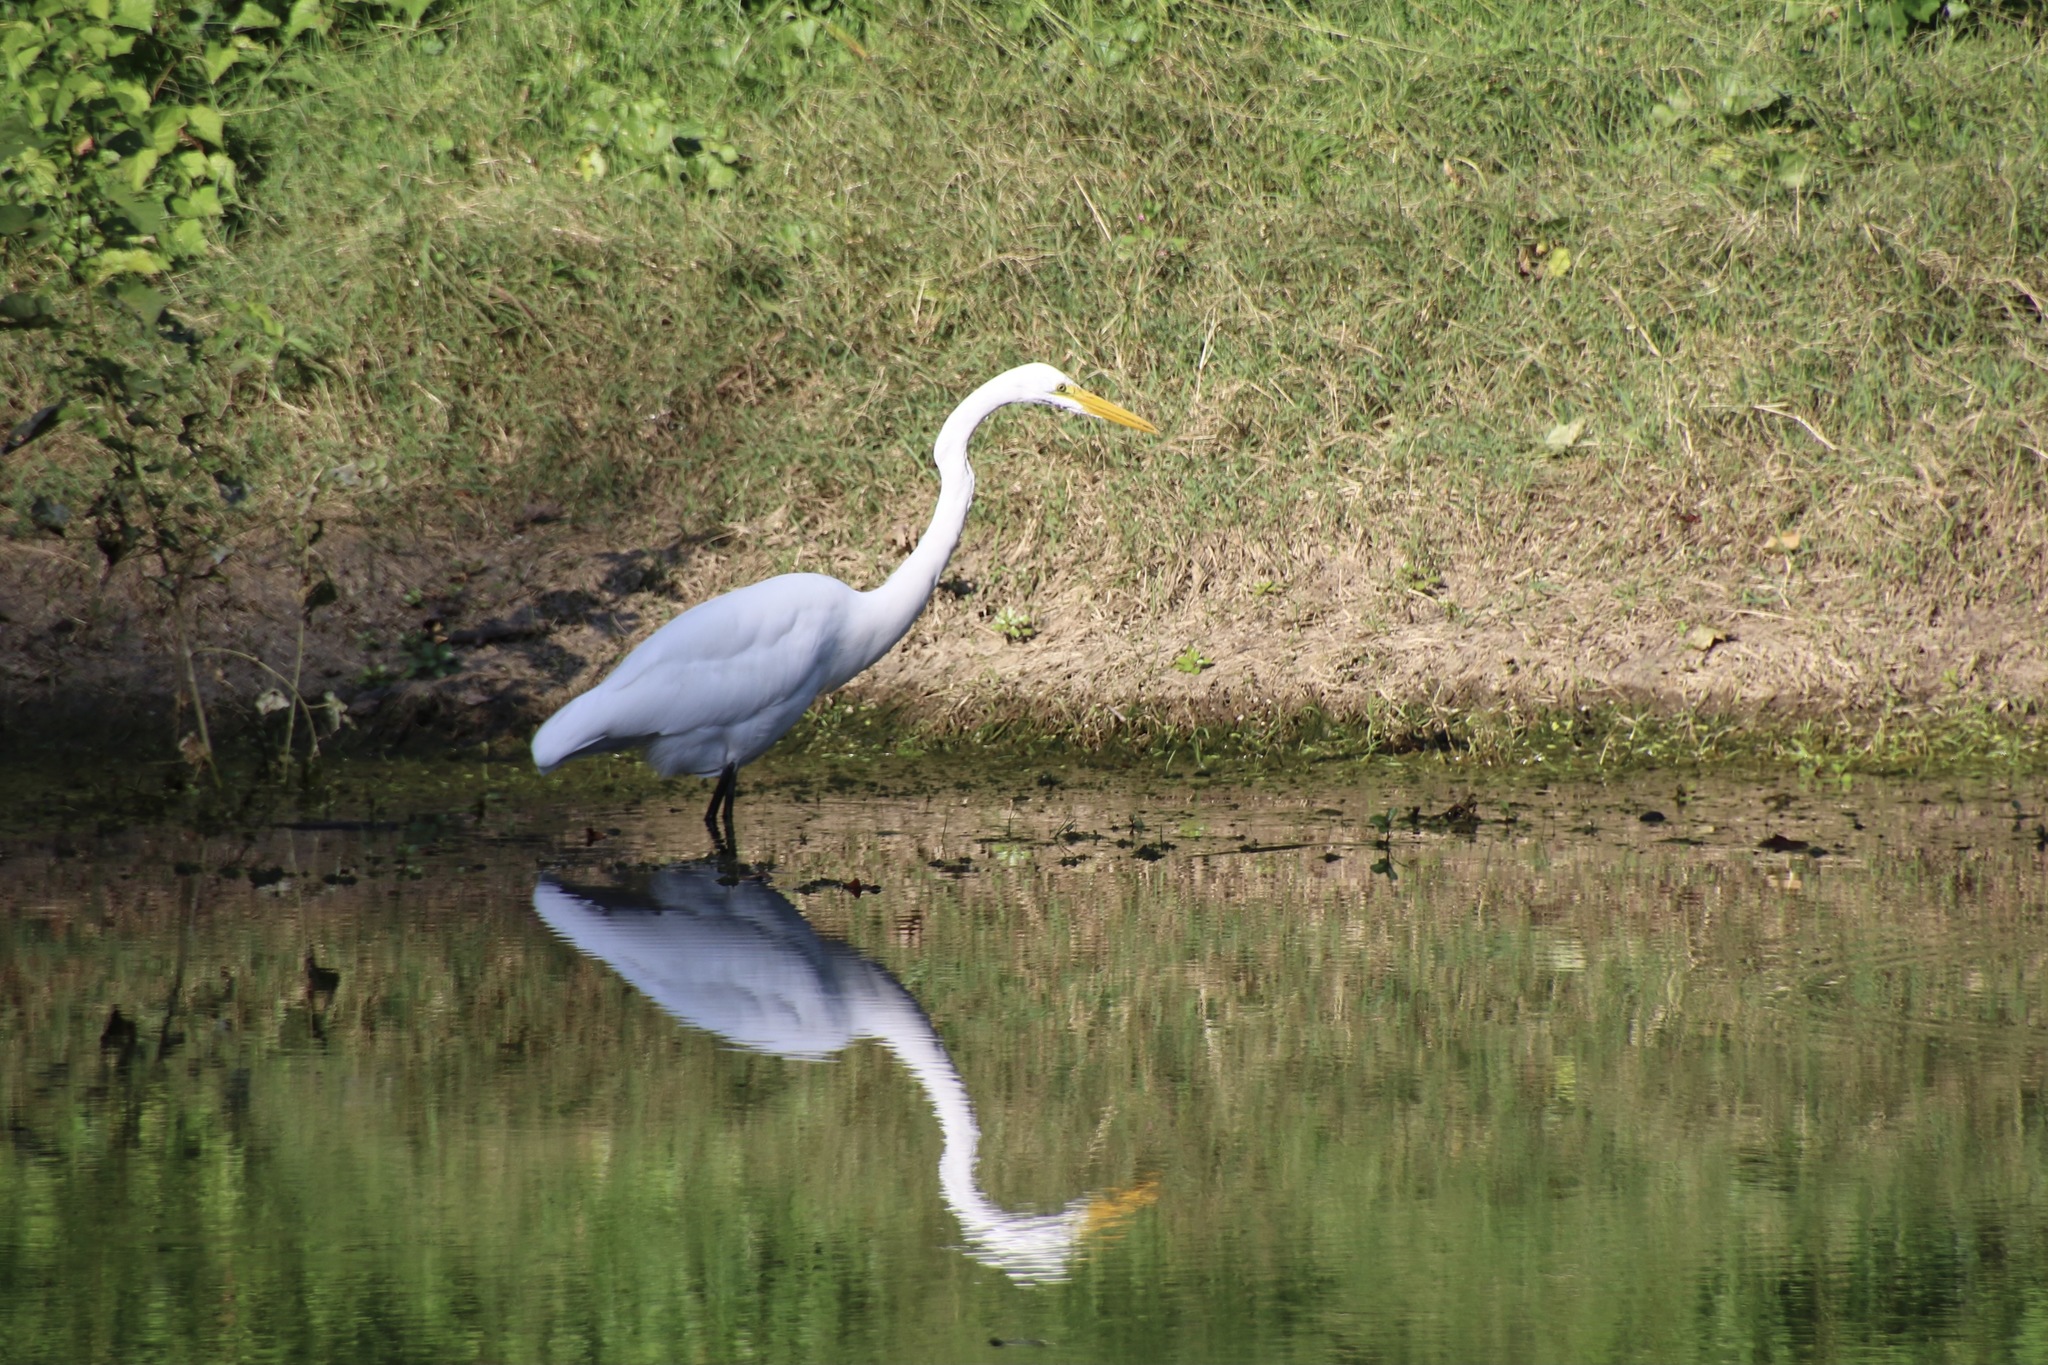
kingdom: Animalia
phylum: Chordata
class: Aves
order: Pelecaniformes
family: Ardeidae
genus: Ardea
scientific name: Ardea alba
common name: Great egret
